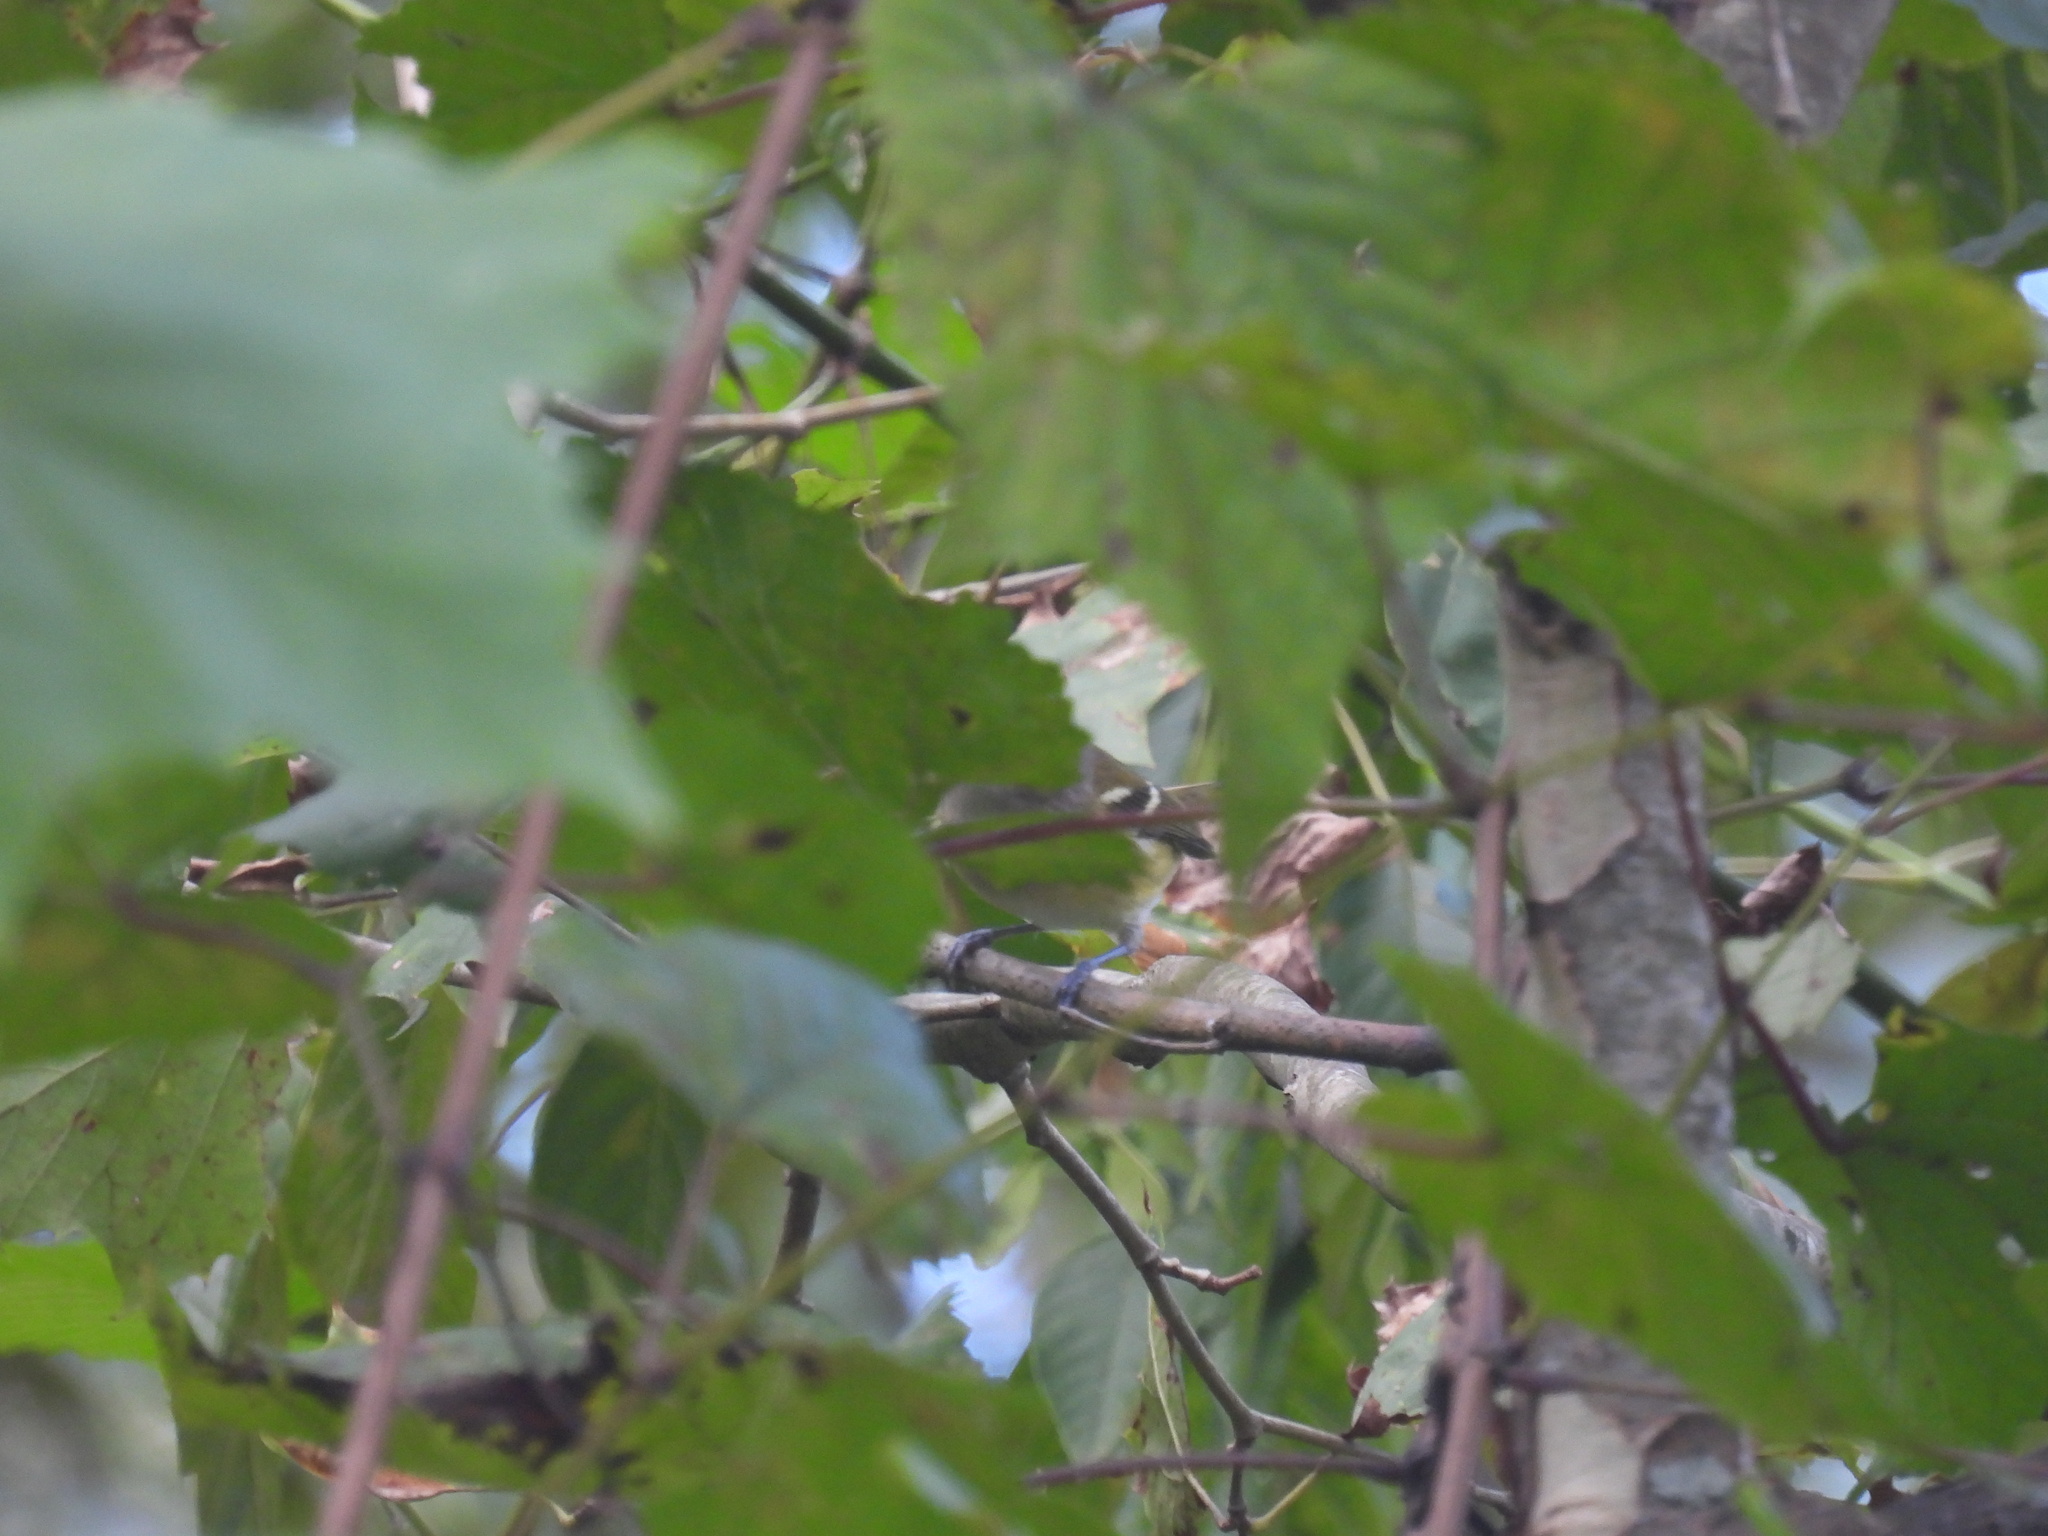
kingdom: Animalia
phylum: Chordata
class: Aves
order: Passeriformes
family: Vireonidae
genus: Vireo
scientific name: Vireo griseus
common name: White-eyed vireo
